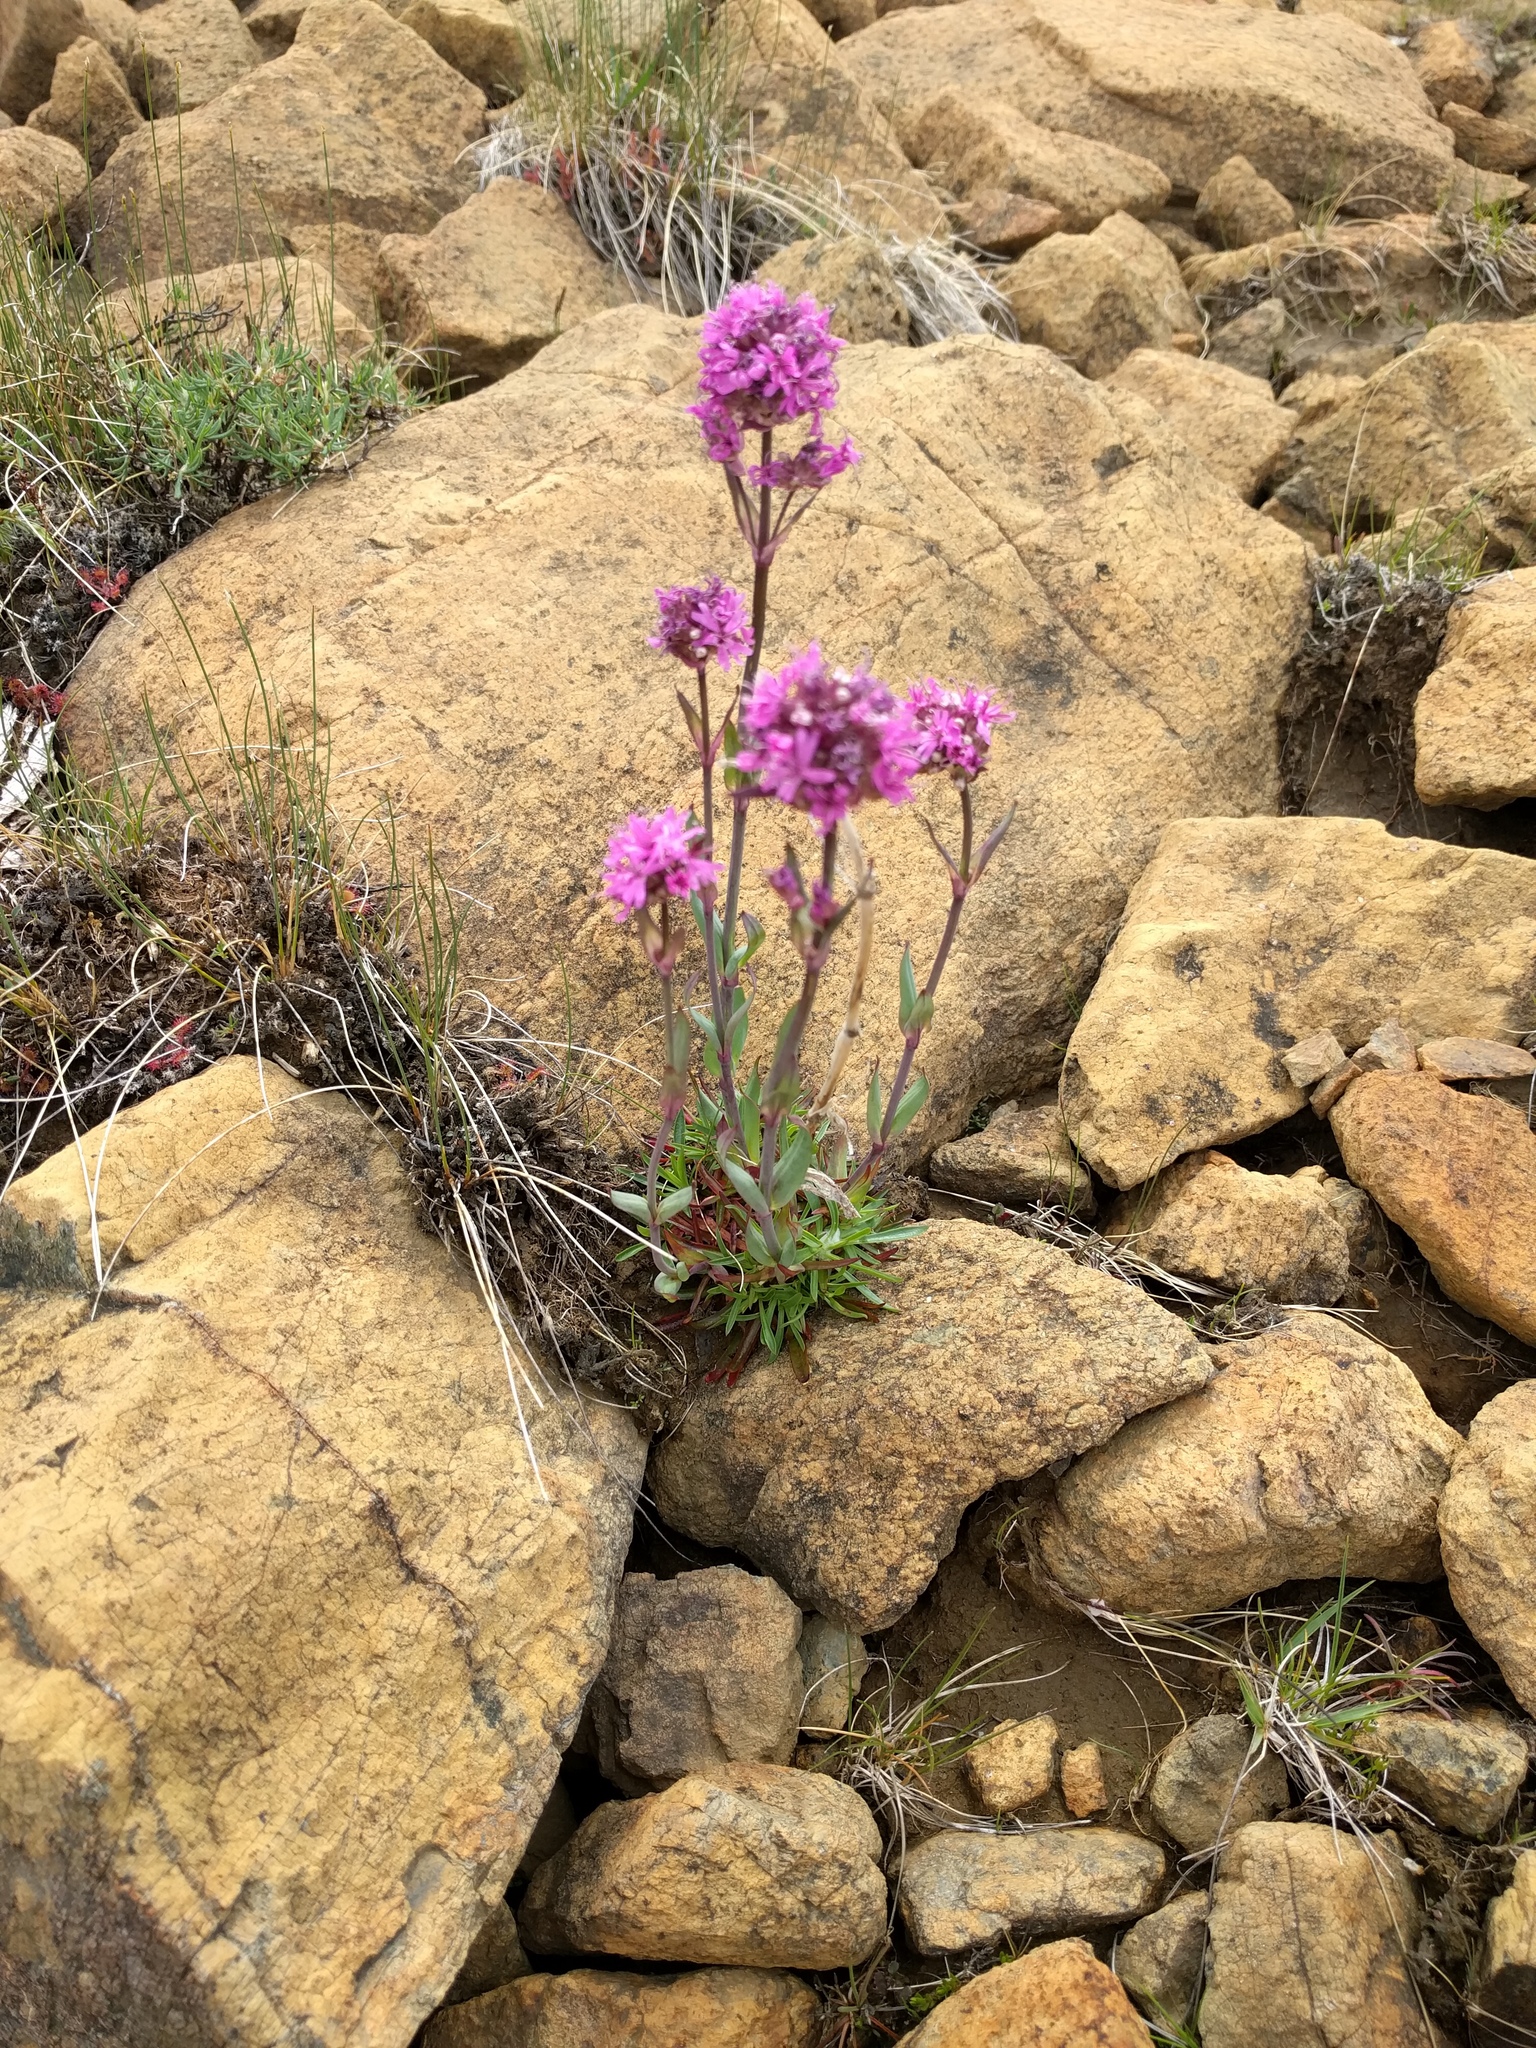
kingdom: Plantae
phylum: Tracheophyta
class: Magnoliopsida
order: Caryophyllales
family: Caryophyllaceae
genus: Viscaria
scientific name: Viscaria alpina
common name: Alpine campion
